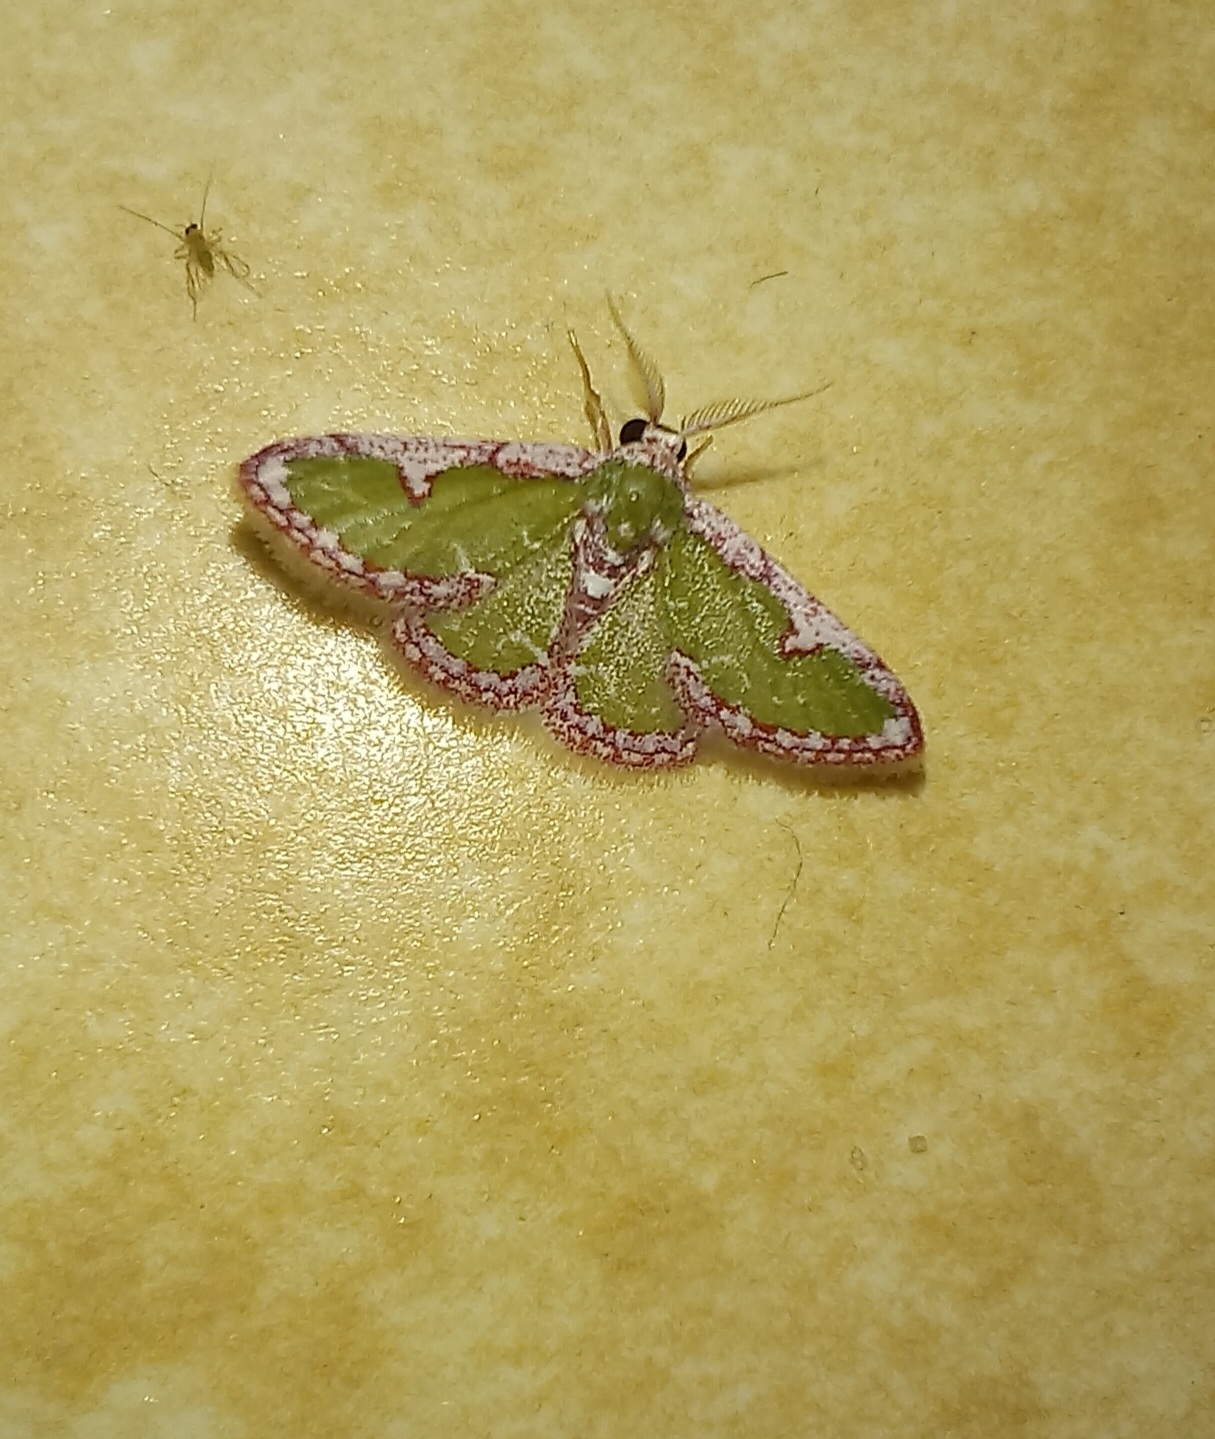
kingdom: Animalia
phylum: Arthropoda
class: Insecta
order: Lepidoptera
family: Geometridae
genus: Allochrostes
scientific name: Allochrostes biornata
